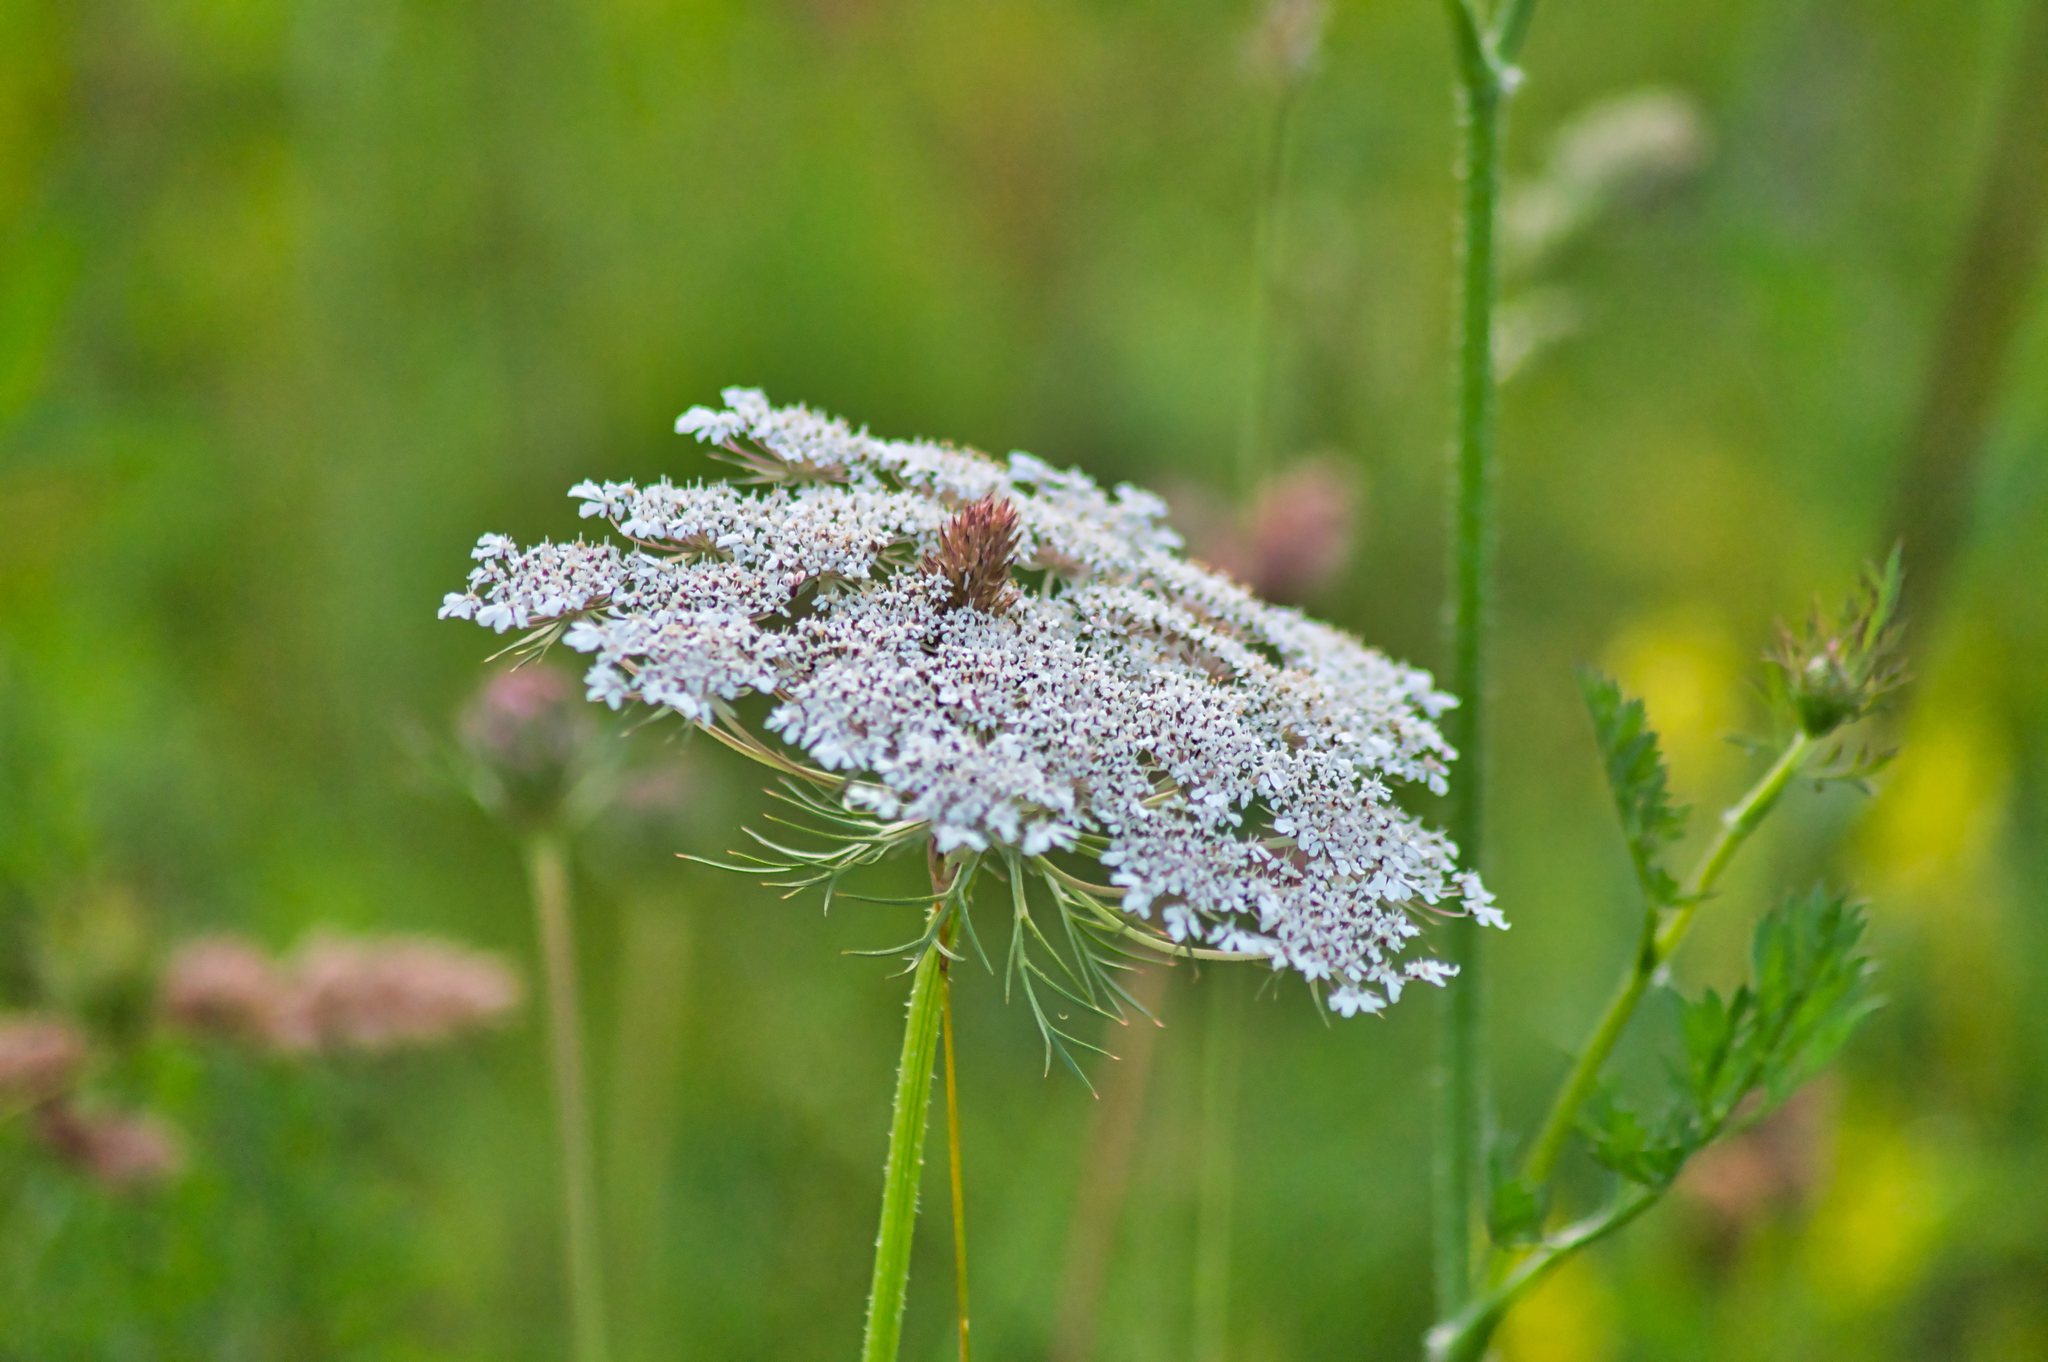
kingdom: Plantae
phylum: Tracheophyta
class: Magnoliopsida
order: Apiales
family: Apiaceae
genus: Daucus
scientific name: Daucus carota
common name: Wild carrot
